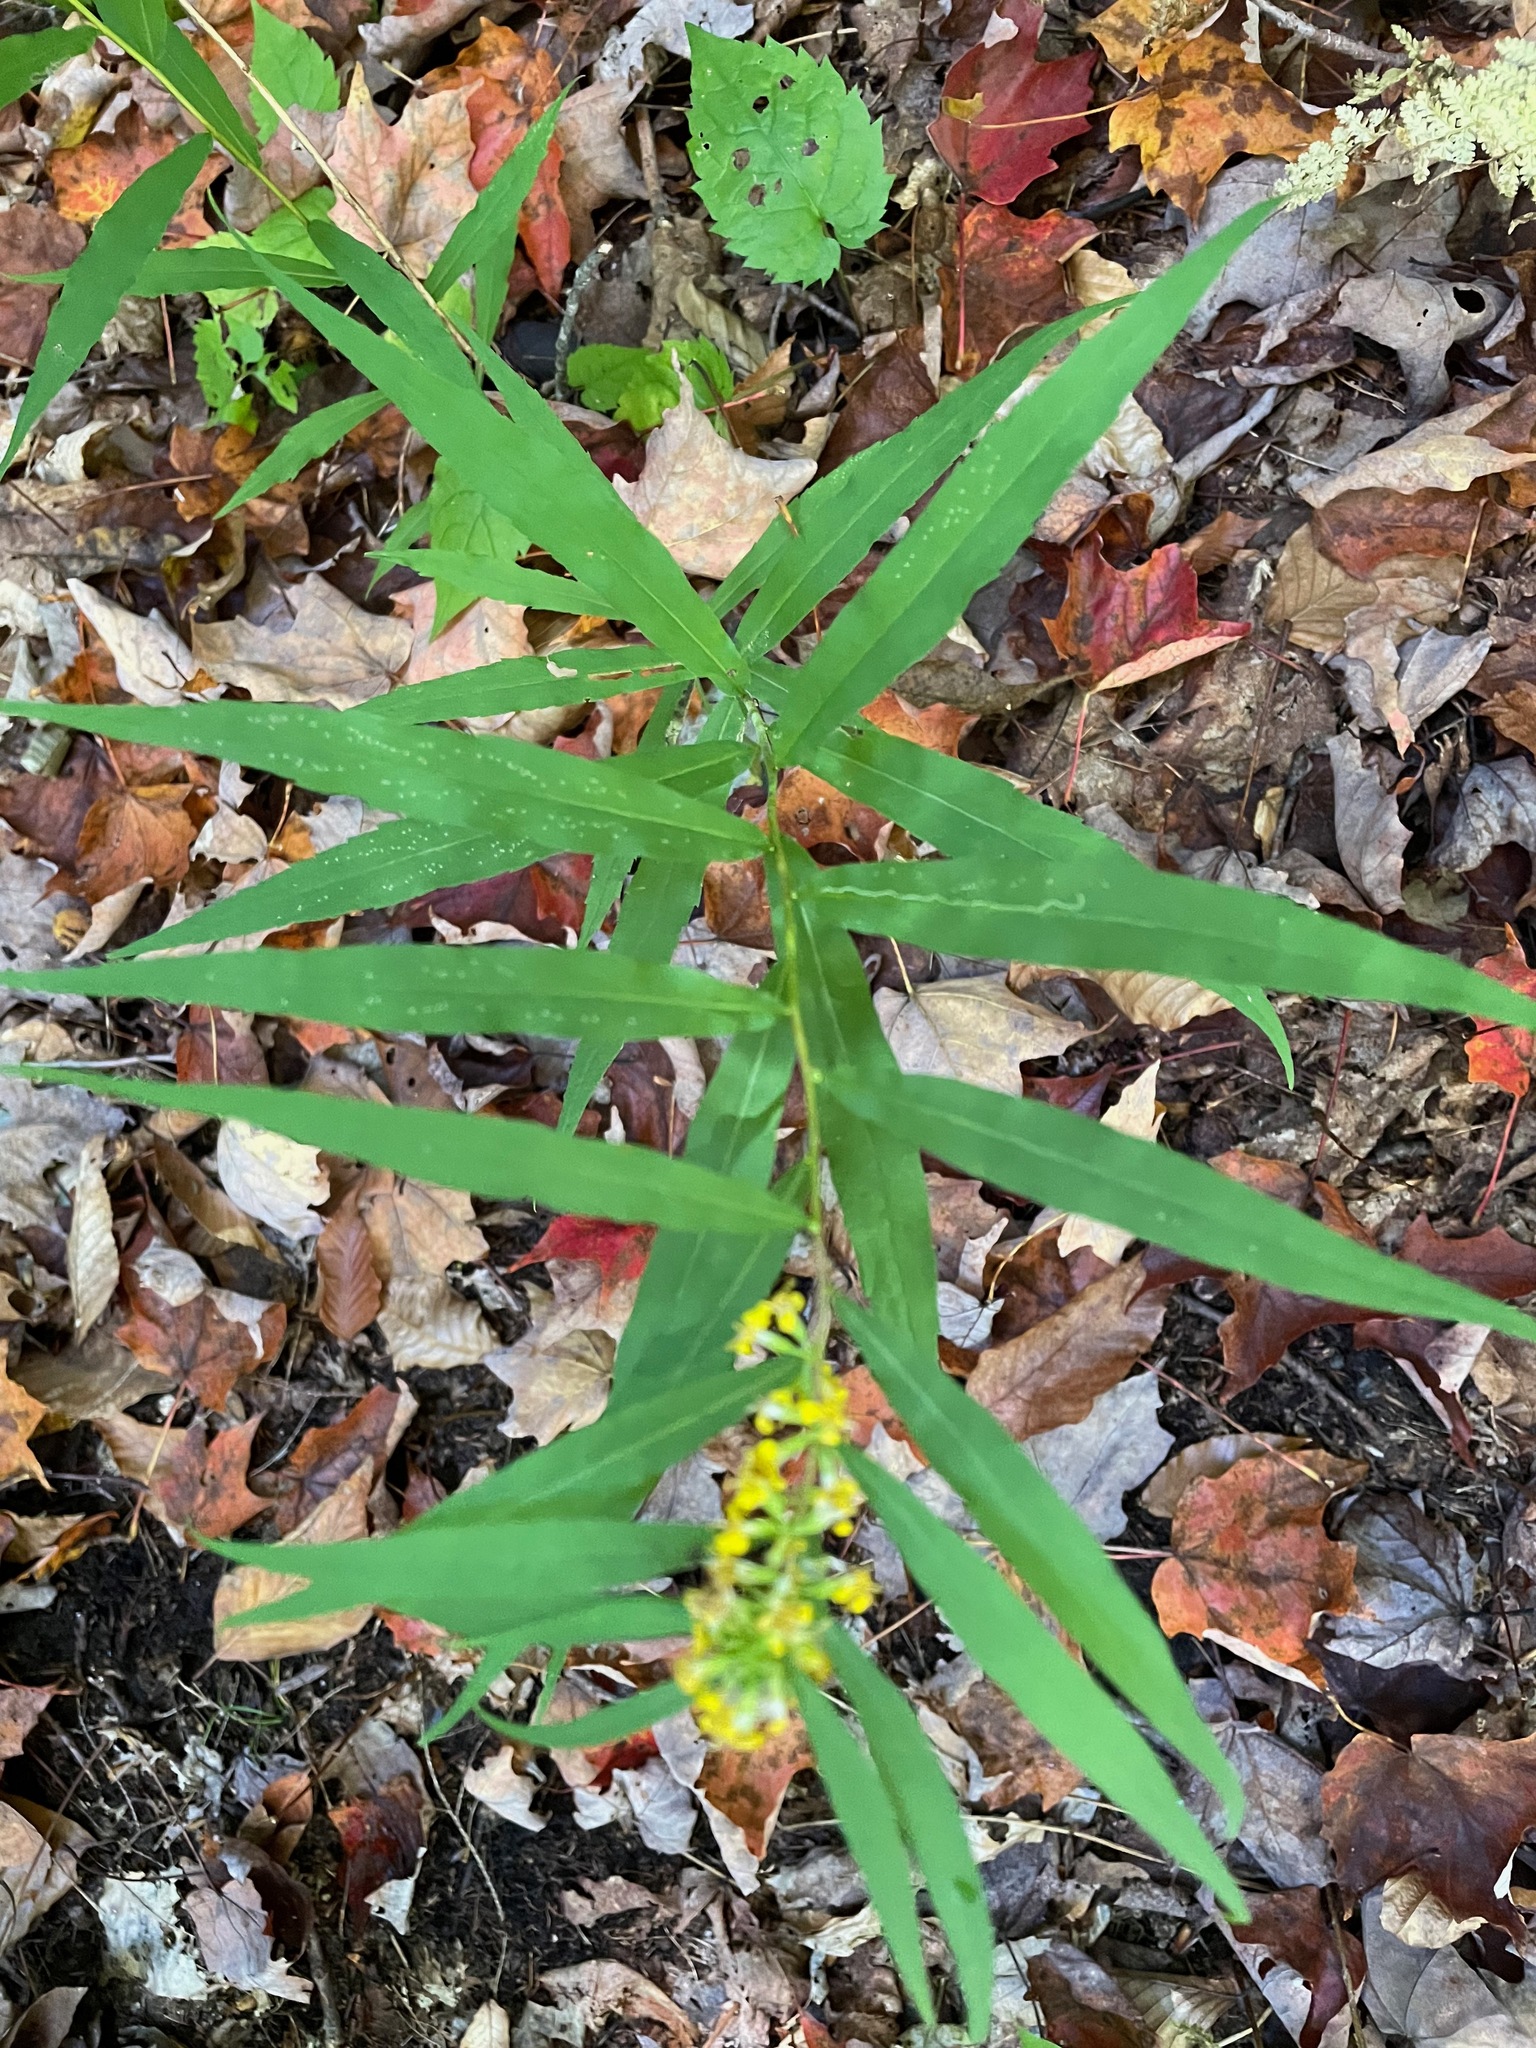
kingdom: Plantae
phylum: Tracheophyta
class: Magnoliopsida
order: Asterales
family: Asteraceae
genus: Solidago
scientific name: Solidago caesia
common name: Woodland goldenrod
